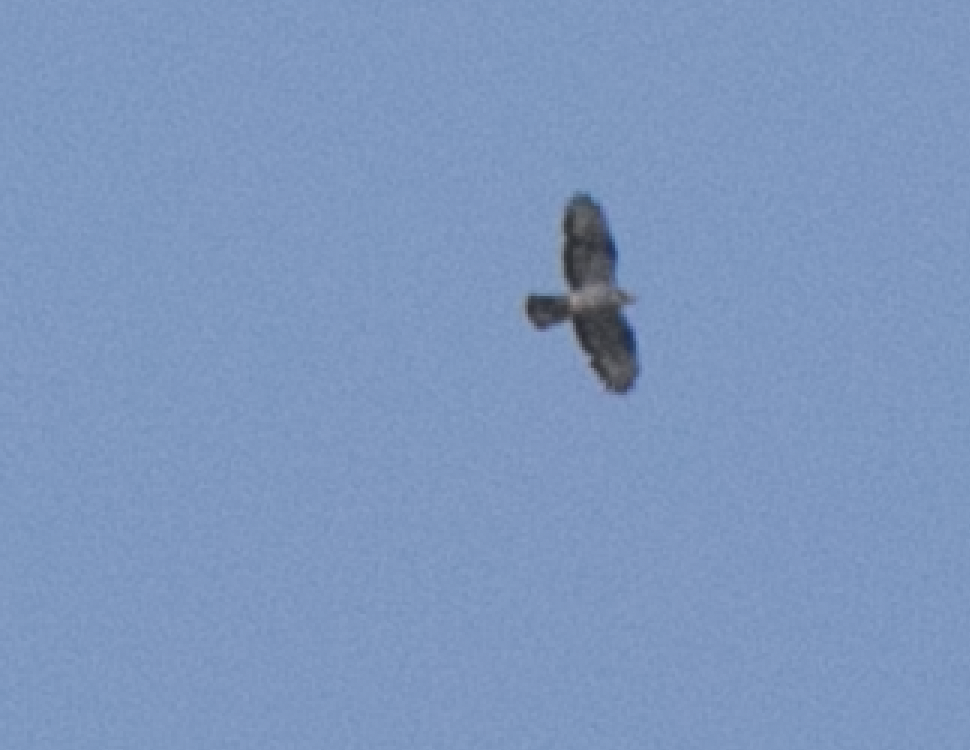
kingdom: Animalia
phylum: Chordata
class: Aves
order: Accipitriformes
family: Accipitridae
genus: Pernis
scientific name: Pernis apivorus
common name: European honey buzzard
